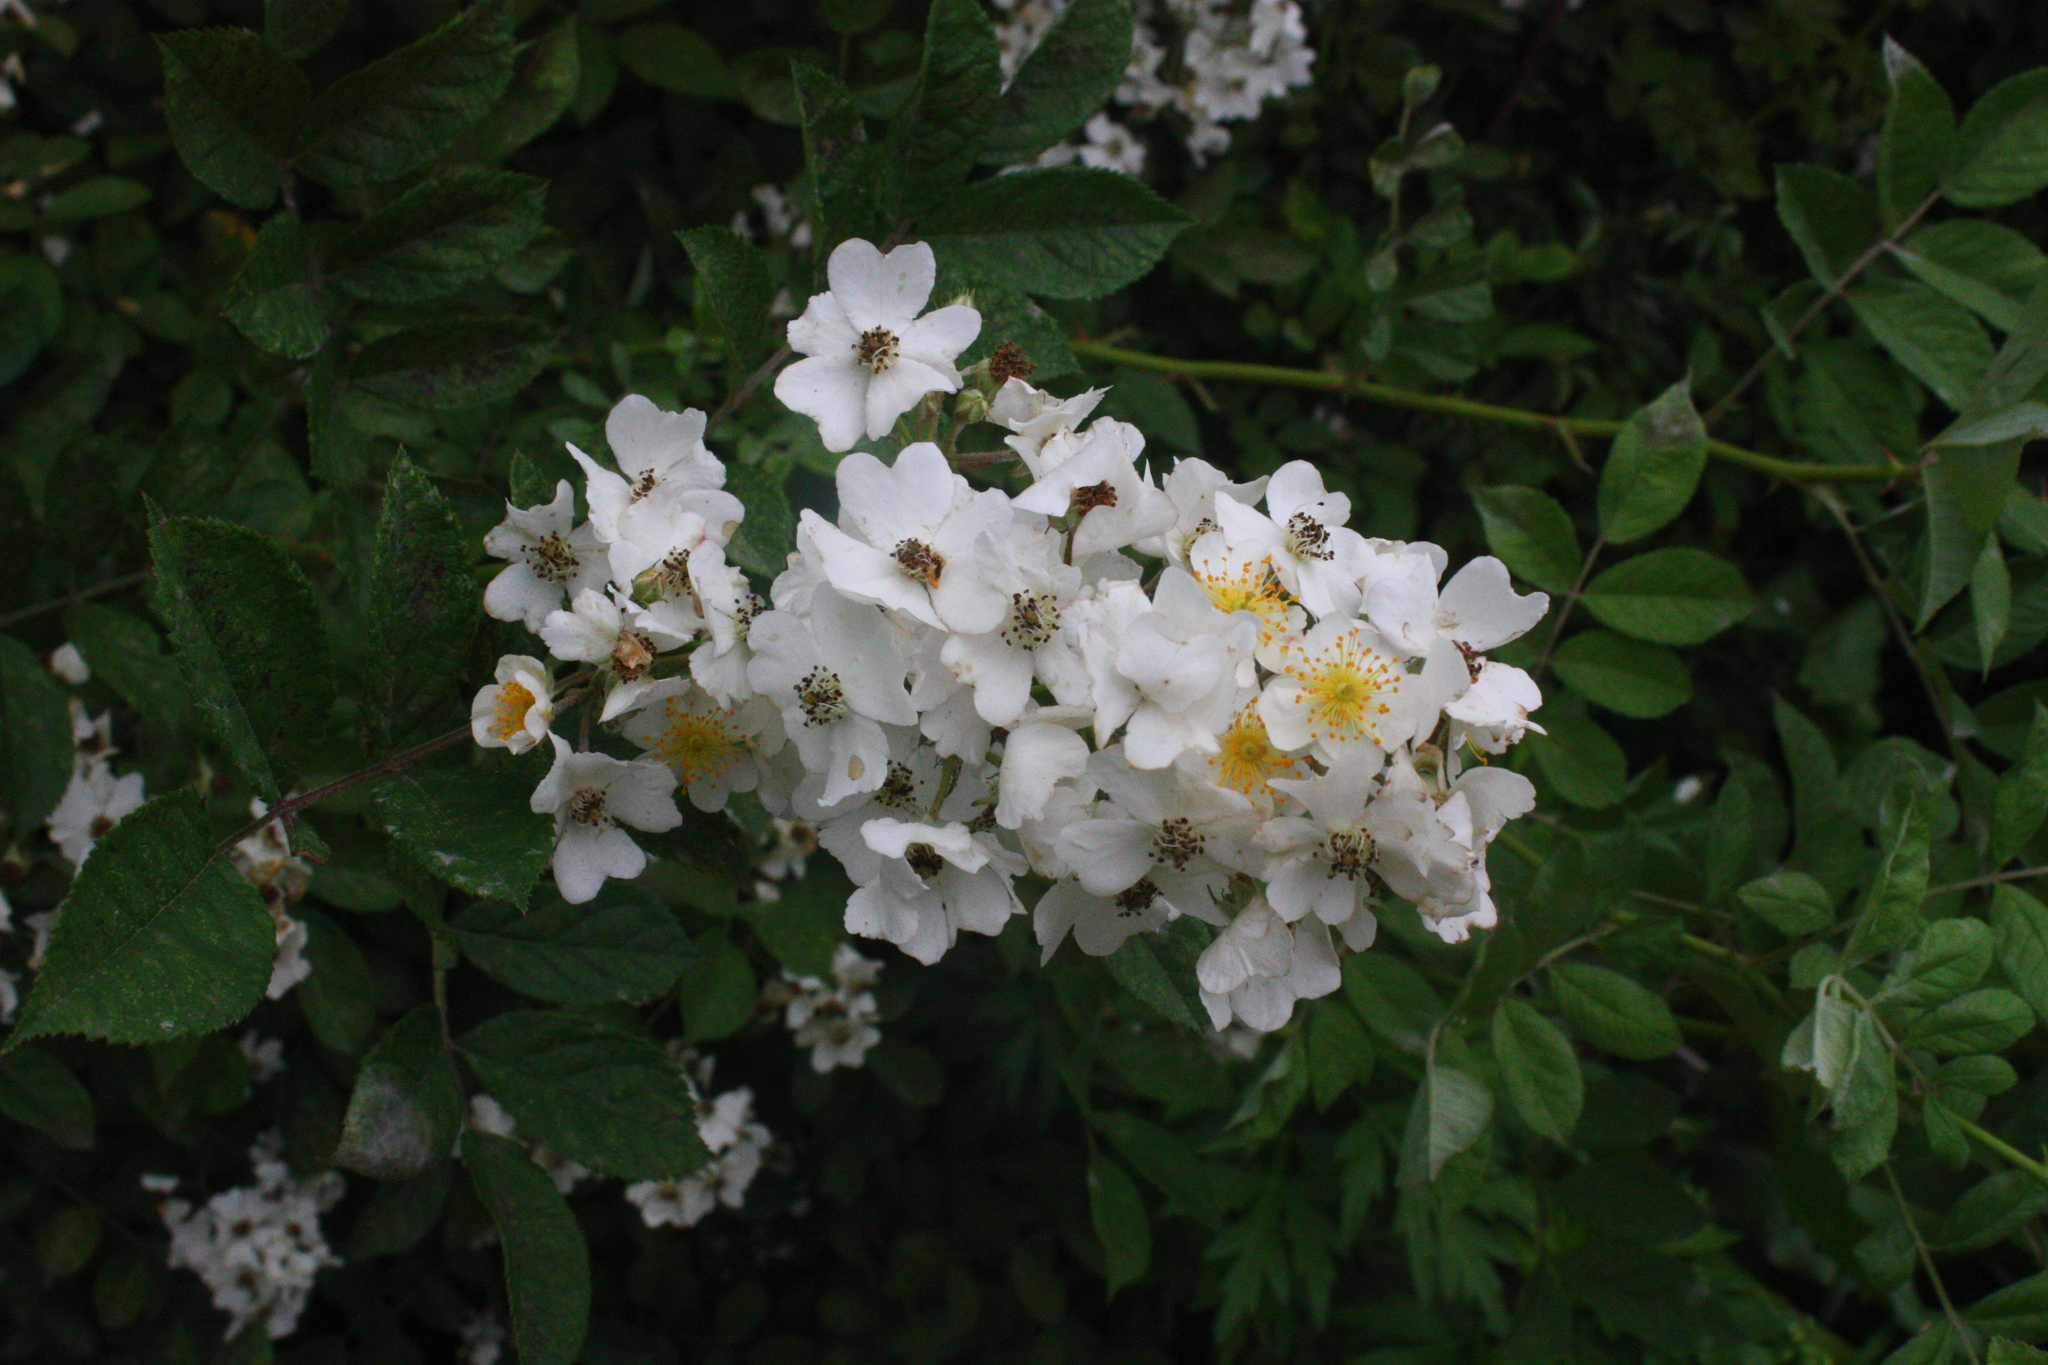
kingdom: Plantae
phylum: Tracheophyta
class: Magnoliopsida
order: Rosales
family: Rosaceae
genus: Rosa
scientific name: Rosa multiflora
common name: Multiflora rose
